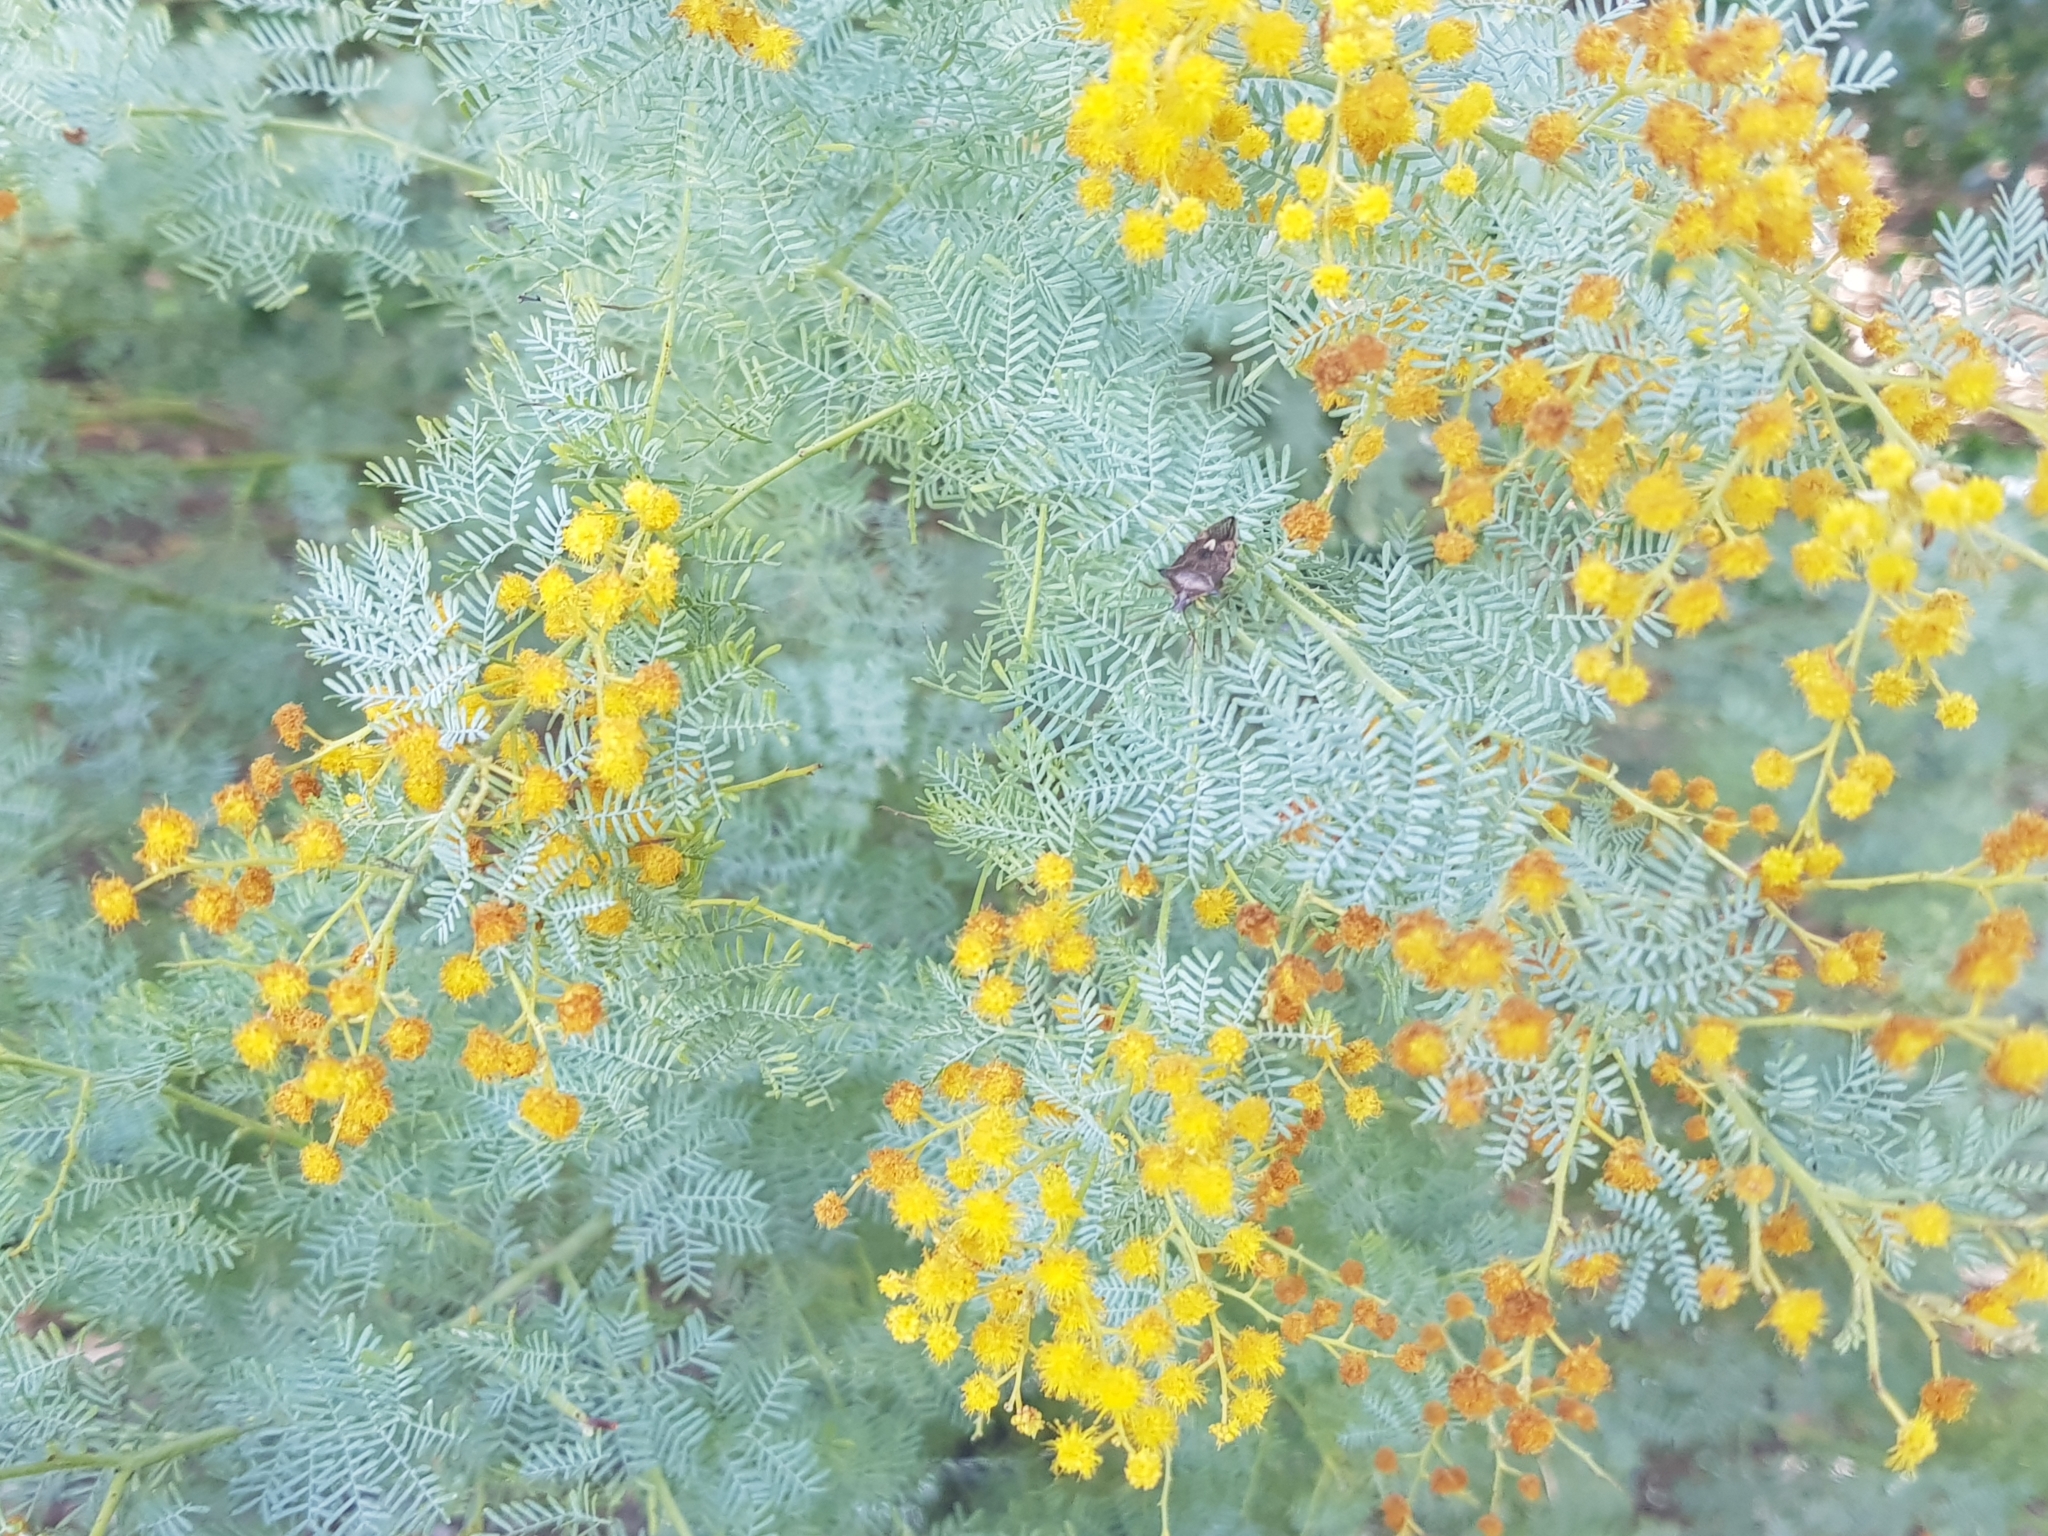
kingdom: Animalia
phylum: Arthropoda
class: Insecta
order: Hemiptera
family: Pentatomidae
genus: Oechalia
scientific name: Oechalia schellenbergii
